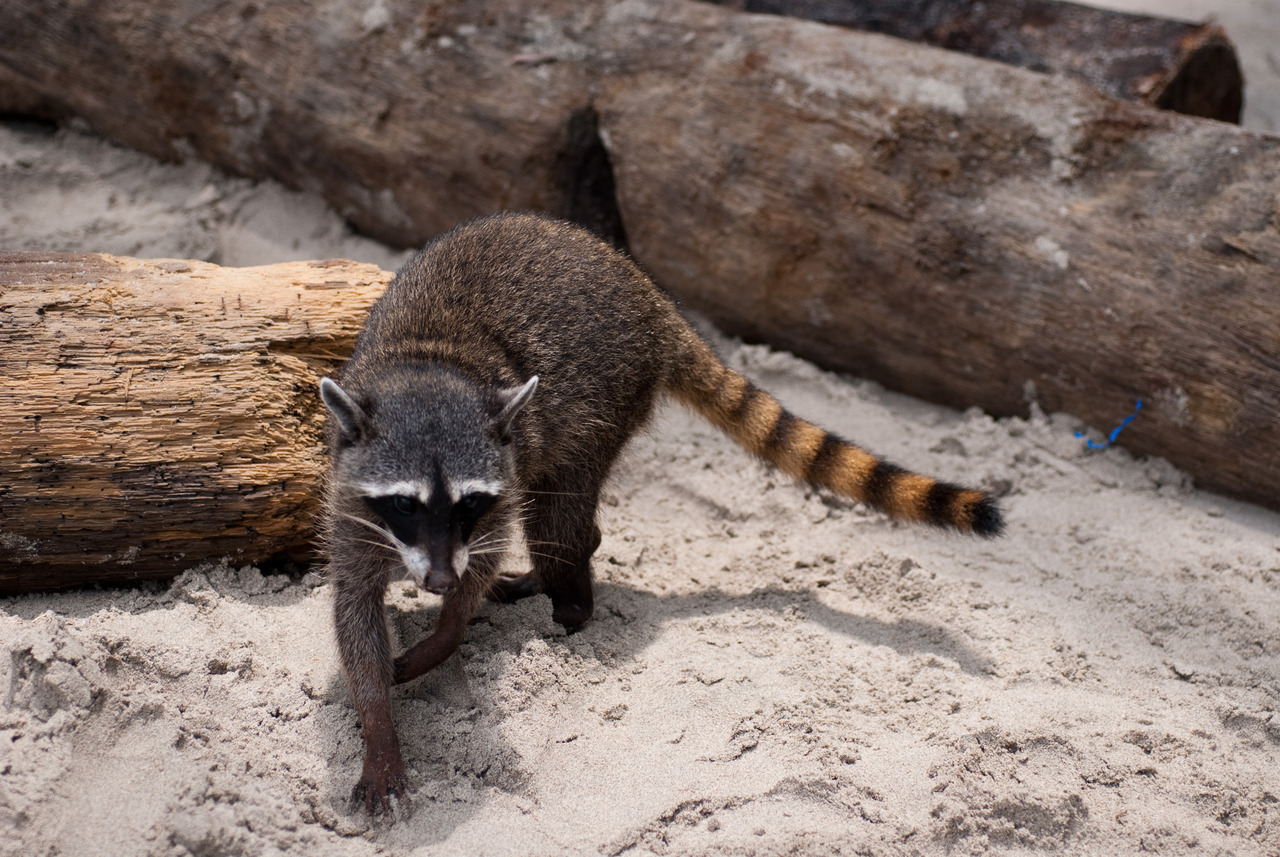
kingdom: Animalia
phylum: Chordata
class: Mammalia
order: Carnivora
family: Procyonidae
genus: Procyon
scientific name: Procyon lotor
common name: Raccoon
